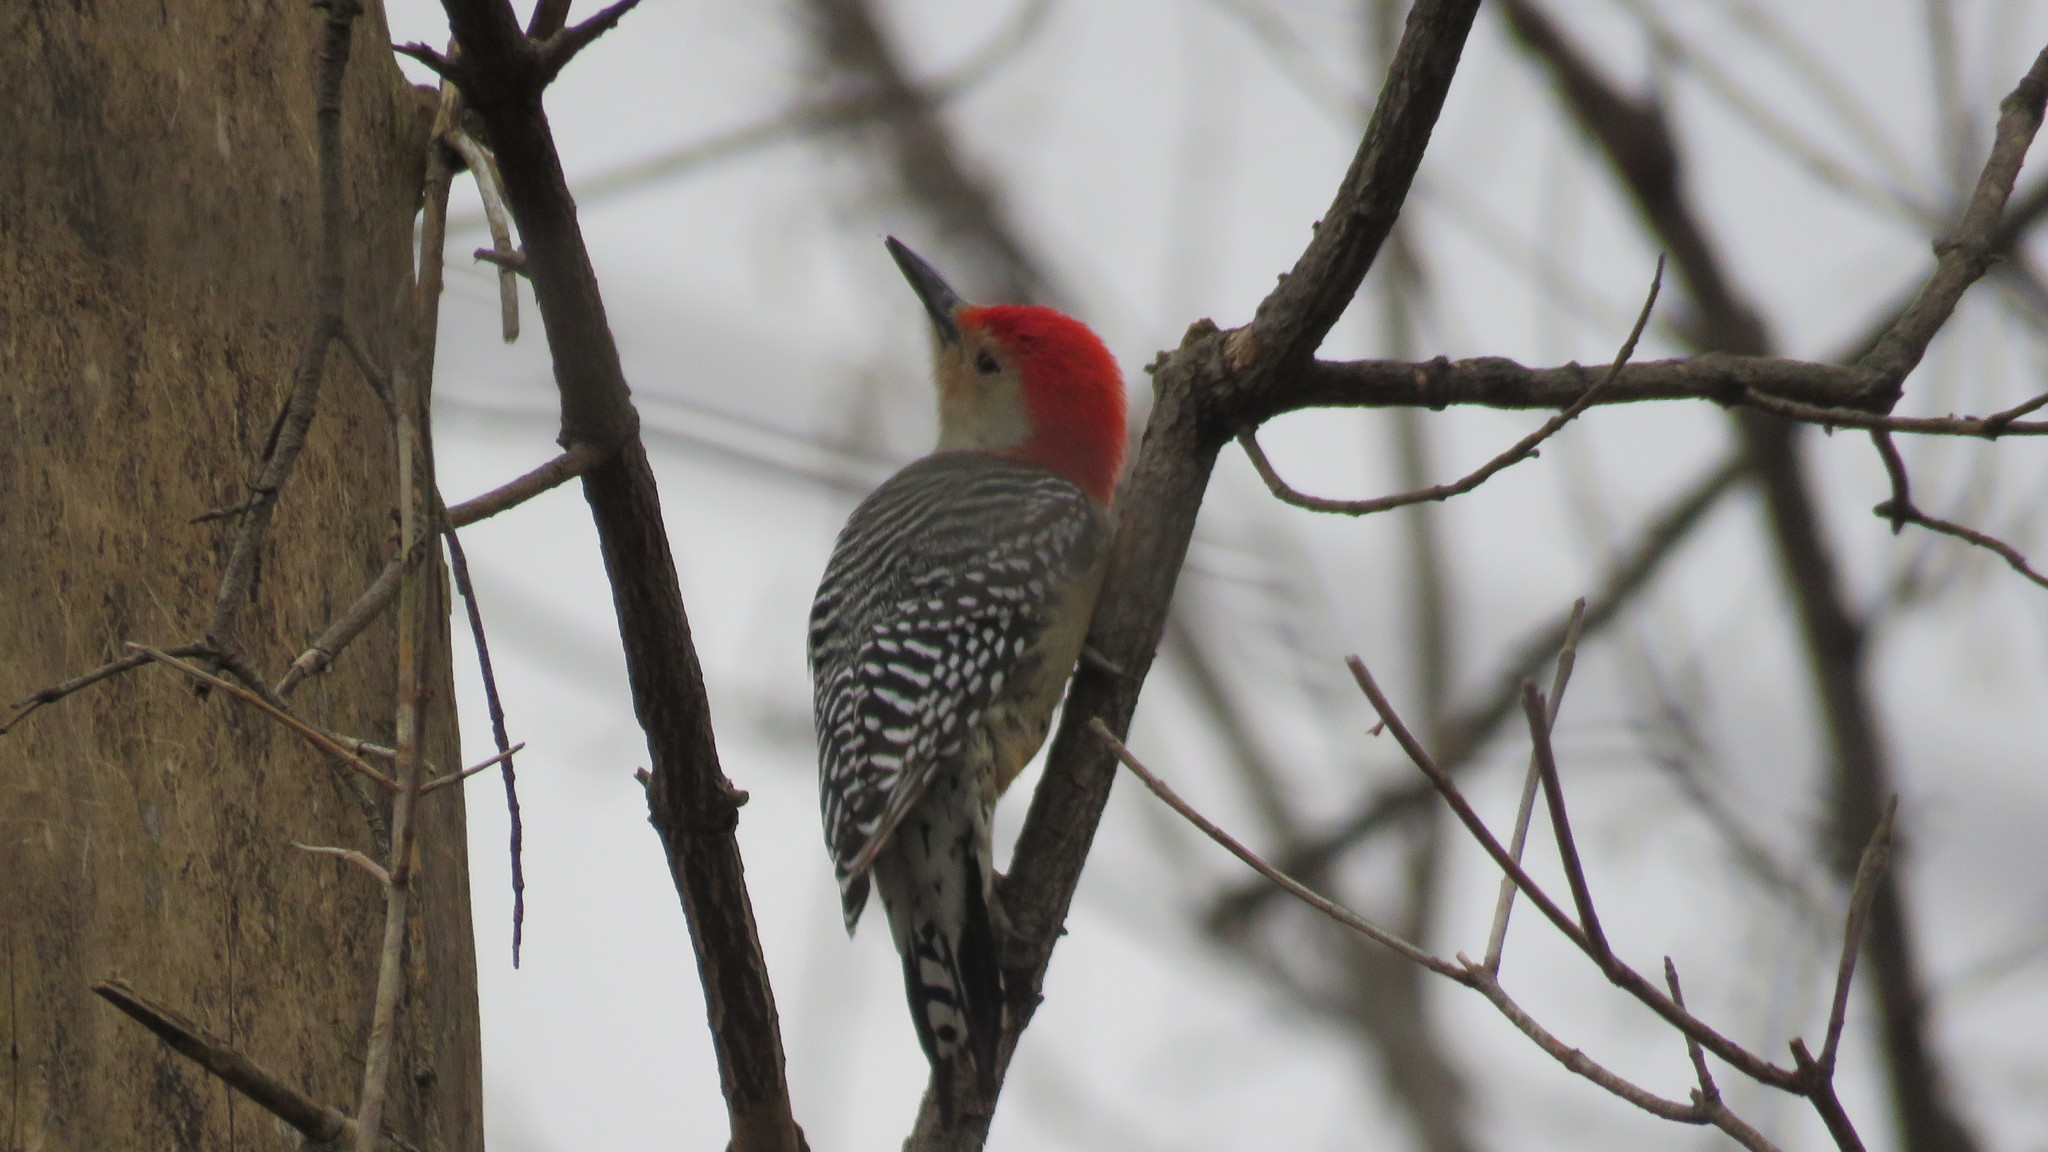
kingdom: Animalia
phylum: Chordata
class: Aves
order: Piciformes
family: Picidae
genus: Melanerpes
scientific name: Melanerpes carolinus
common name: Red-bellied woodpecker
